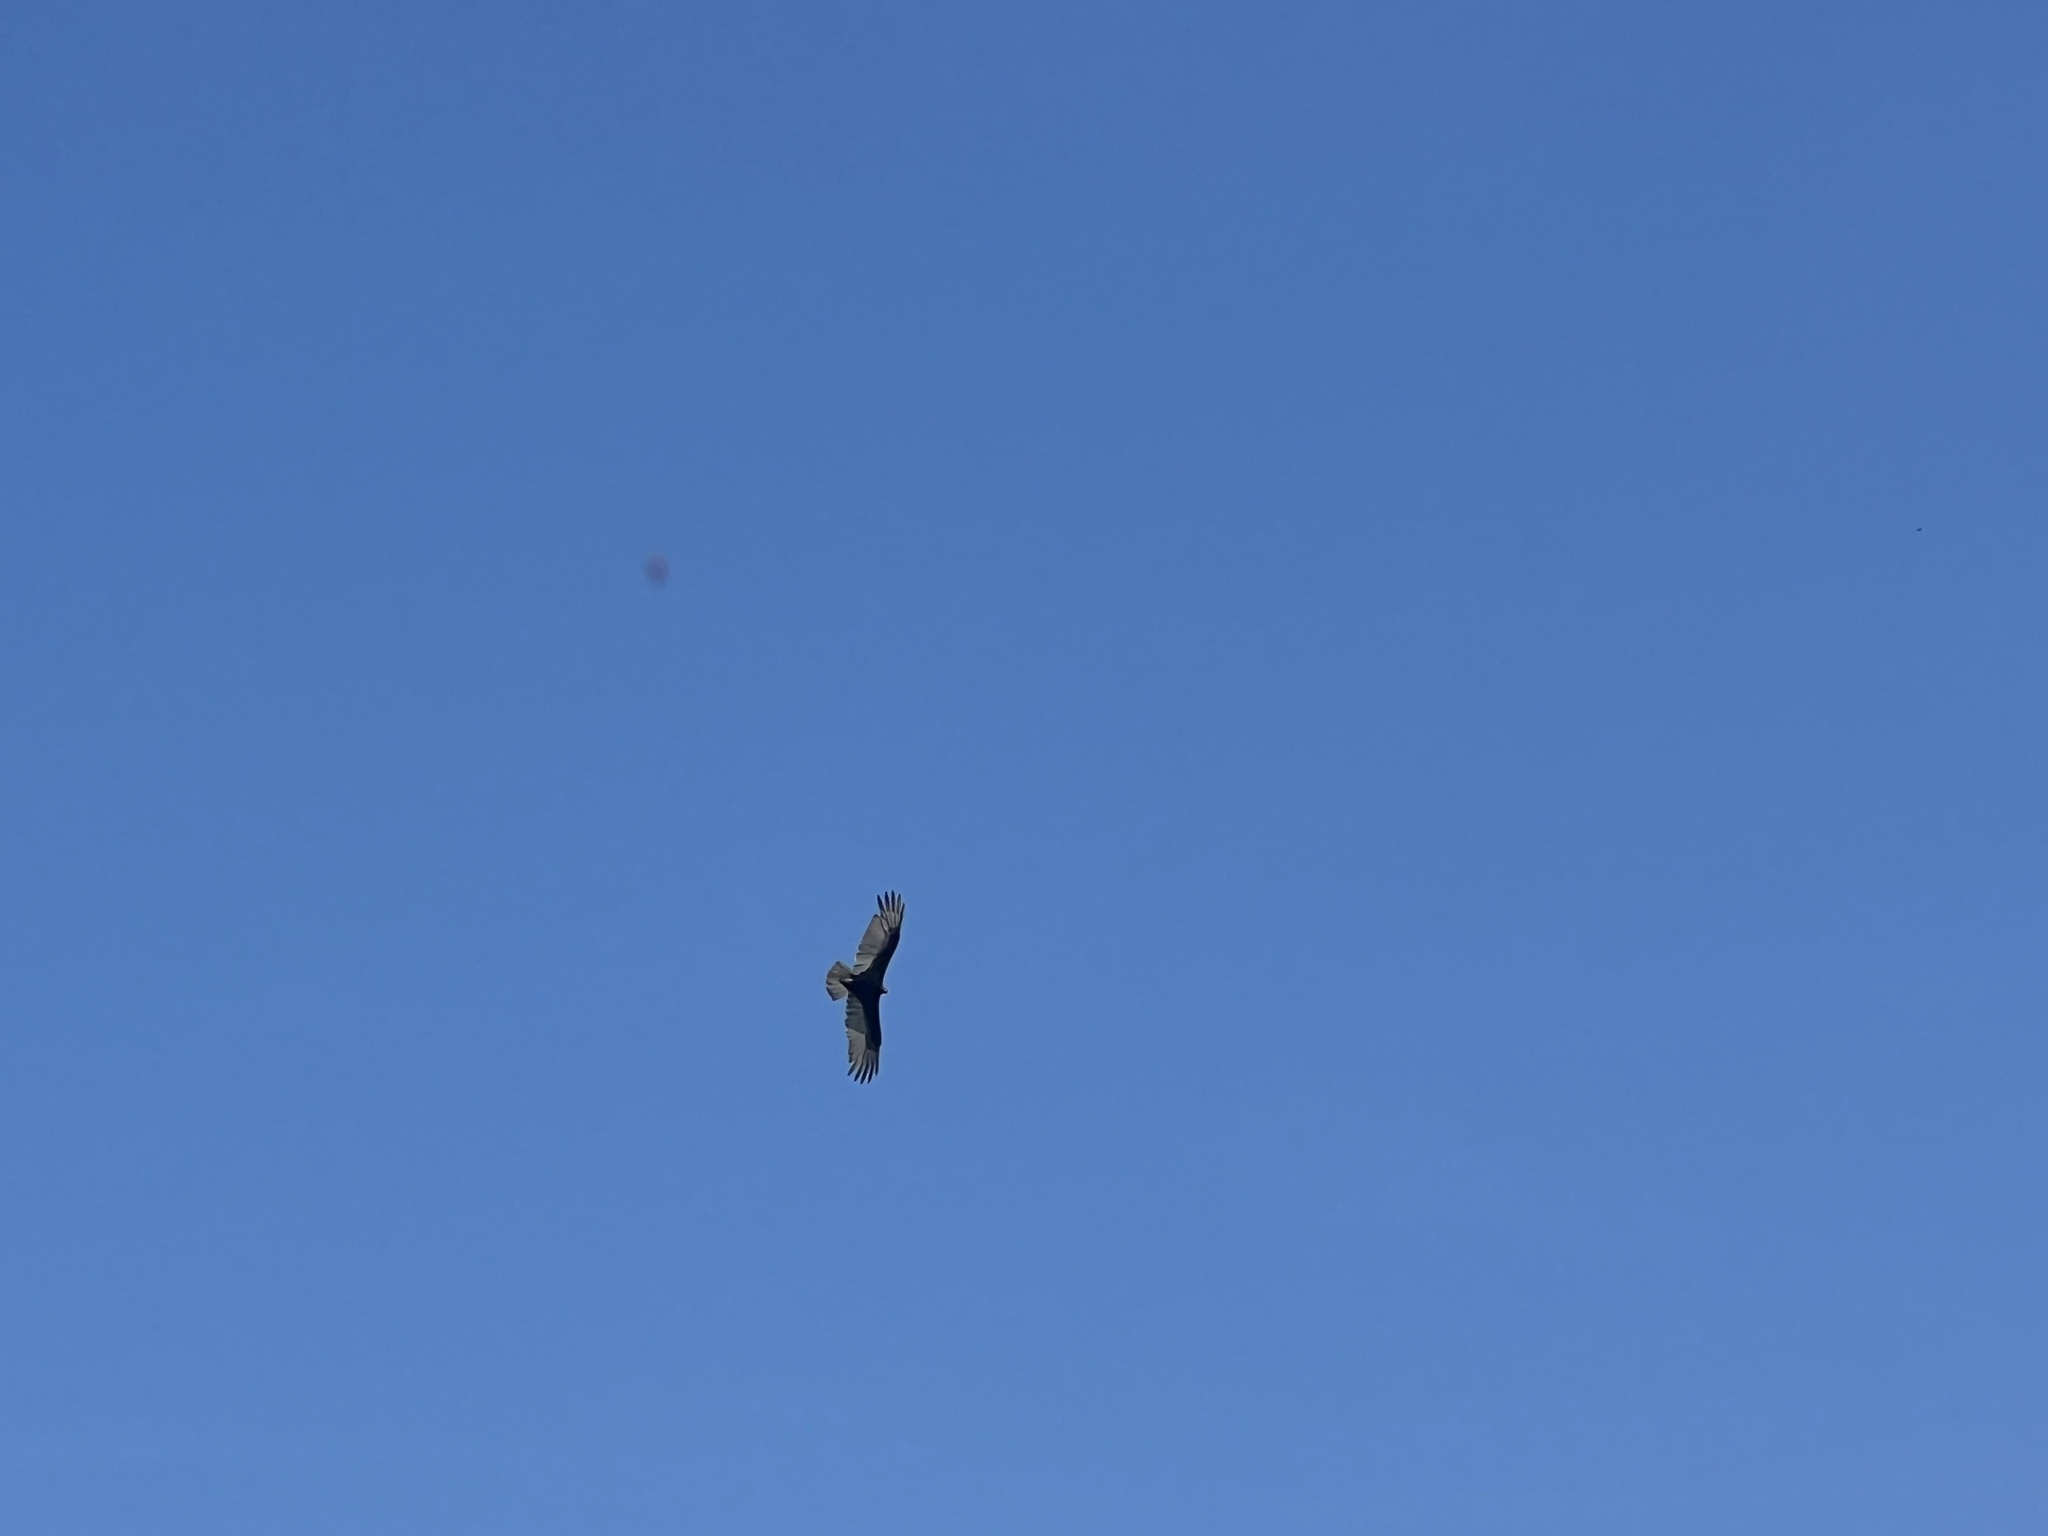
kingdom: Animalia
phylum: Chordata
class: Aves
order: Accipitriformes
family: Cathartidae
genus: Cathartes
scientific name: Cathartes aura
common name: Turkey vulture
